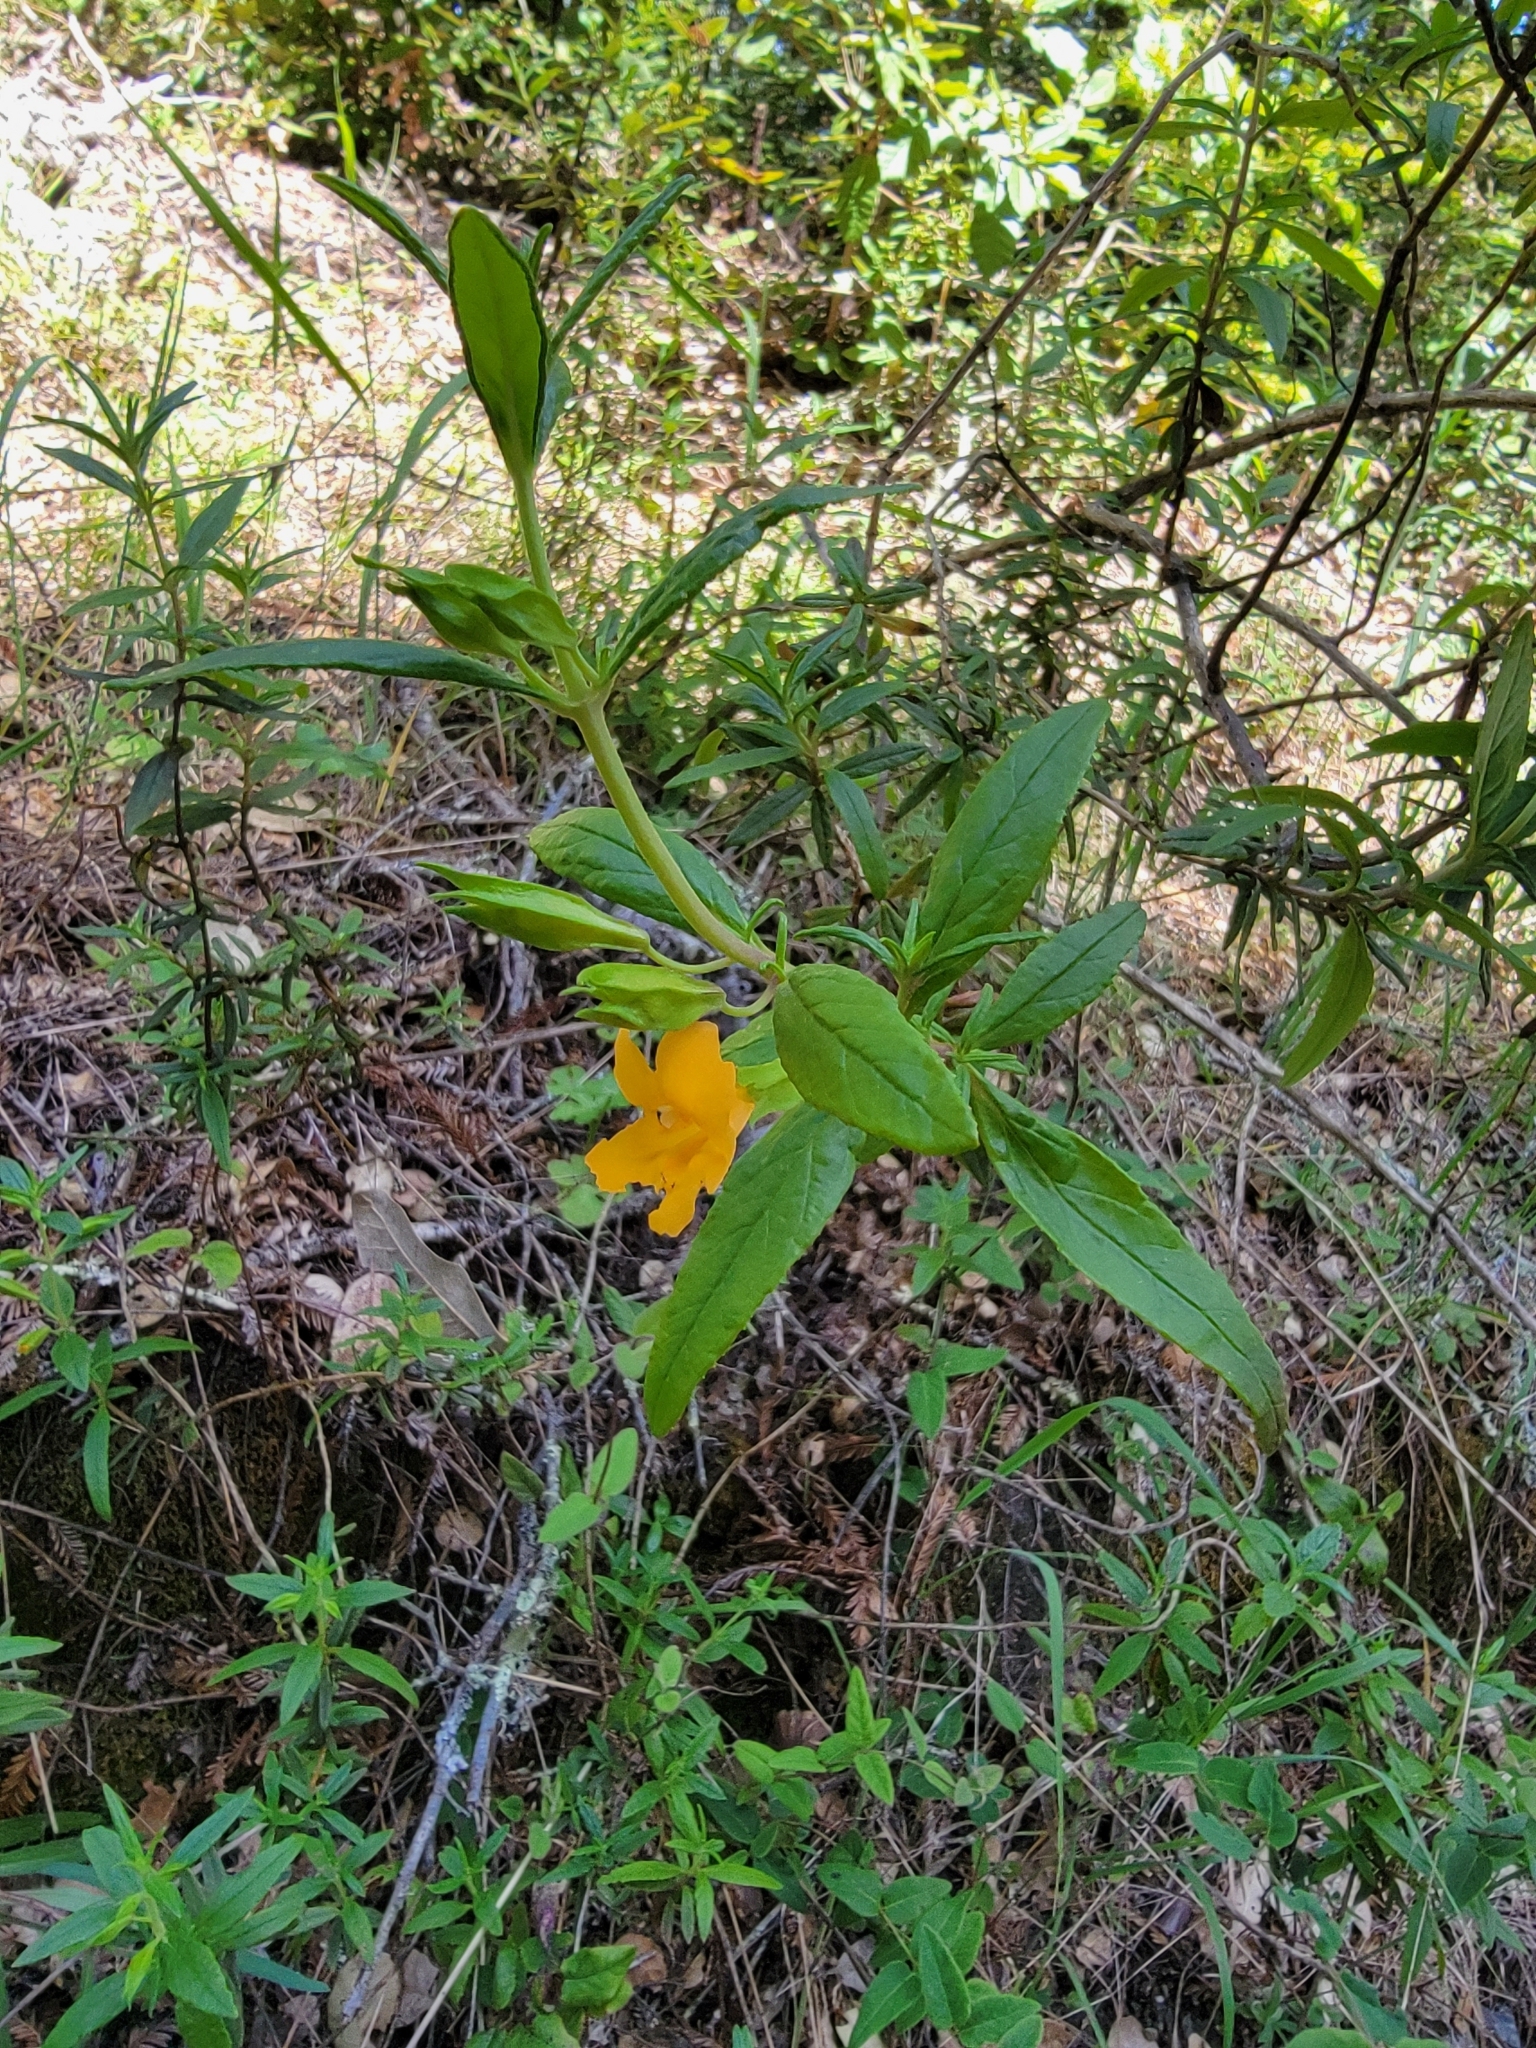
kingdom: Plantae
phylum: Tracheophyta
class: Magnoliopsida
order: Lamiales
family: Phrymaceae
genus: Diplacus
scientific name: Diplacus aurantiacus
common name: Bush monkey-flower
